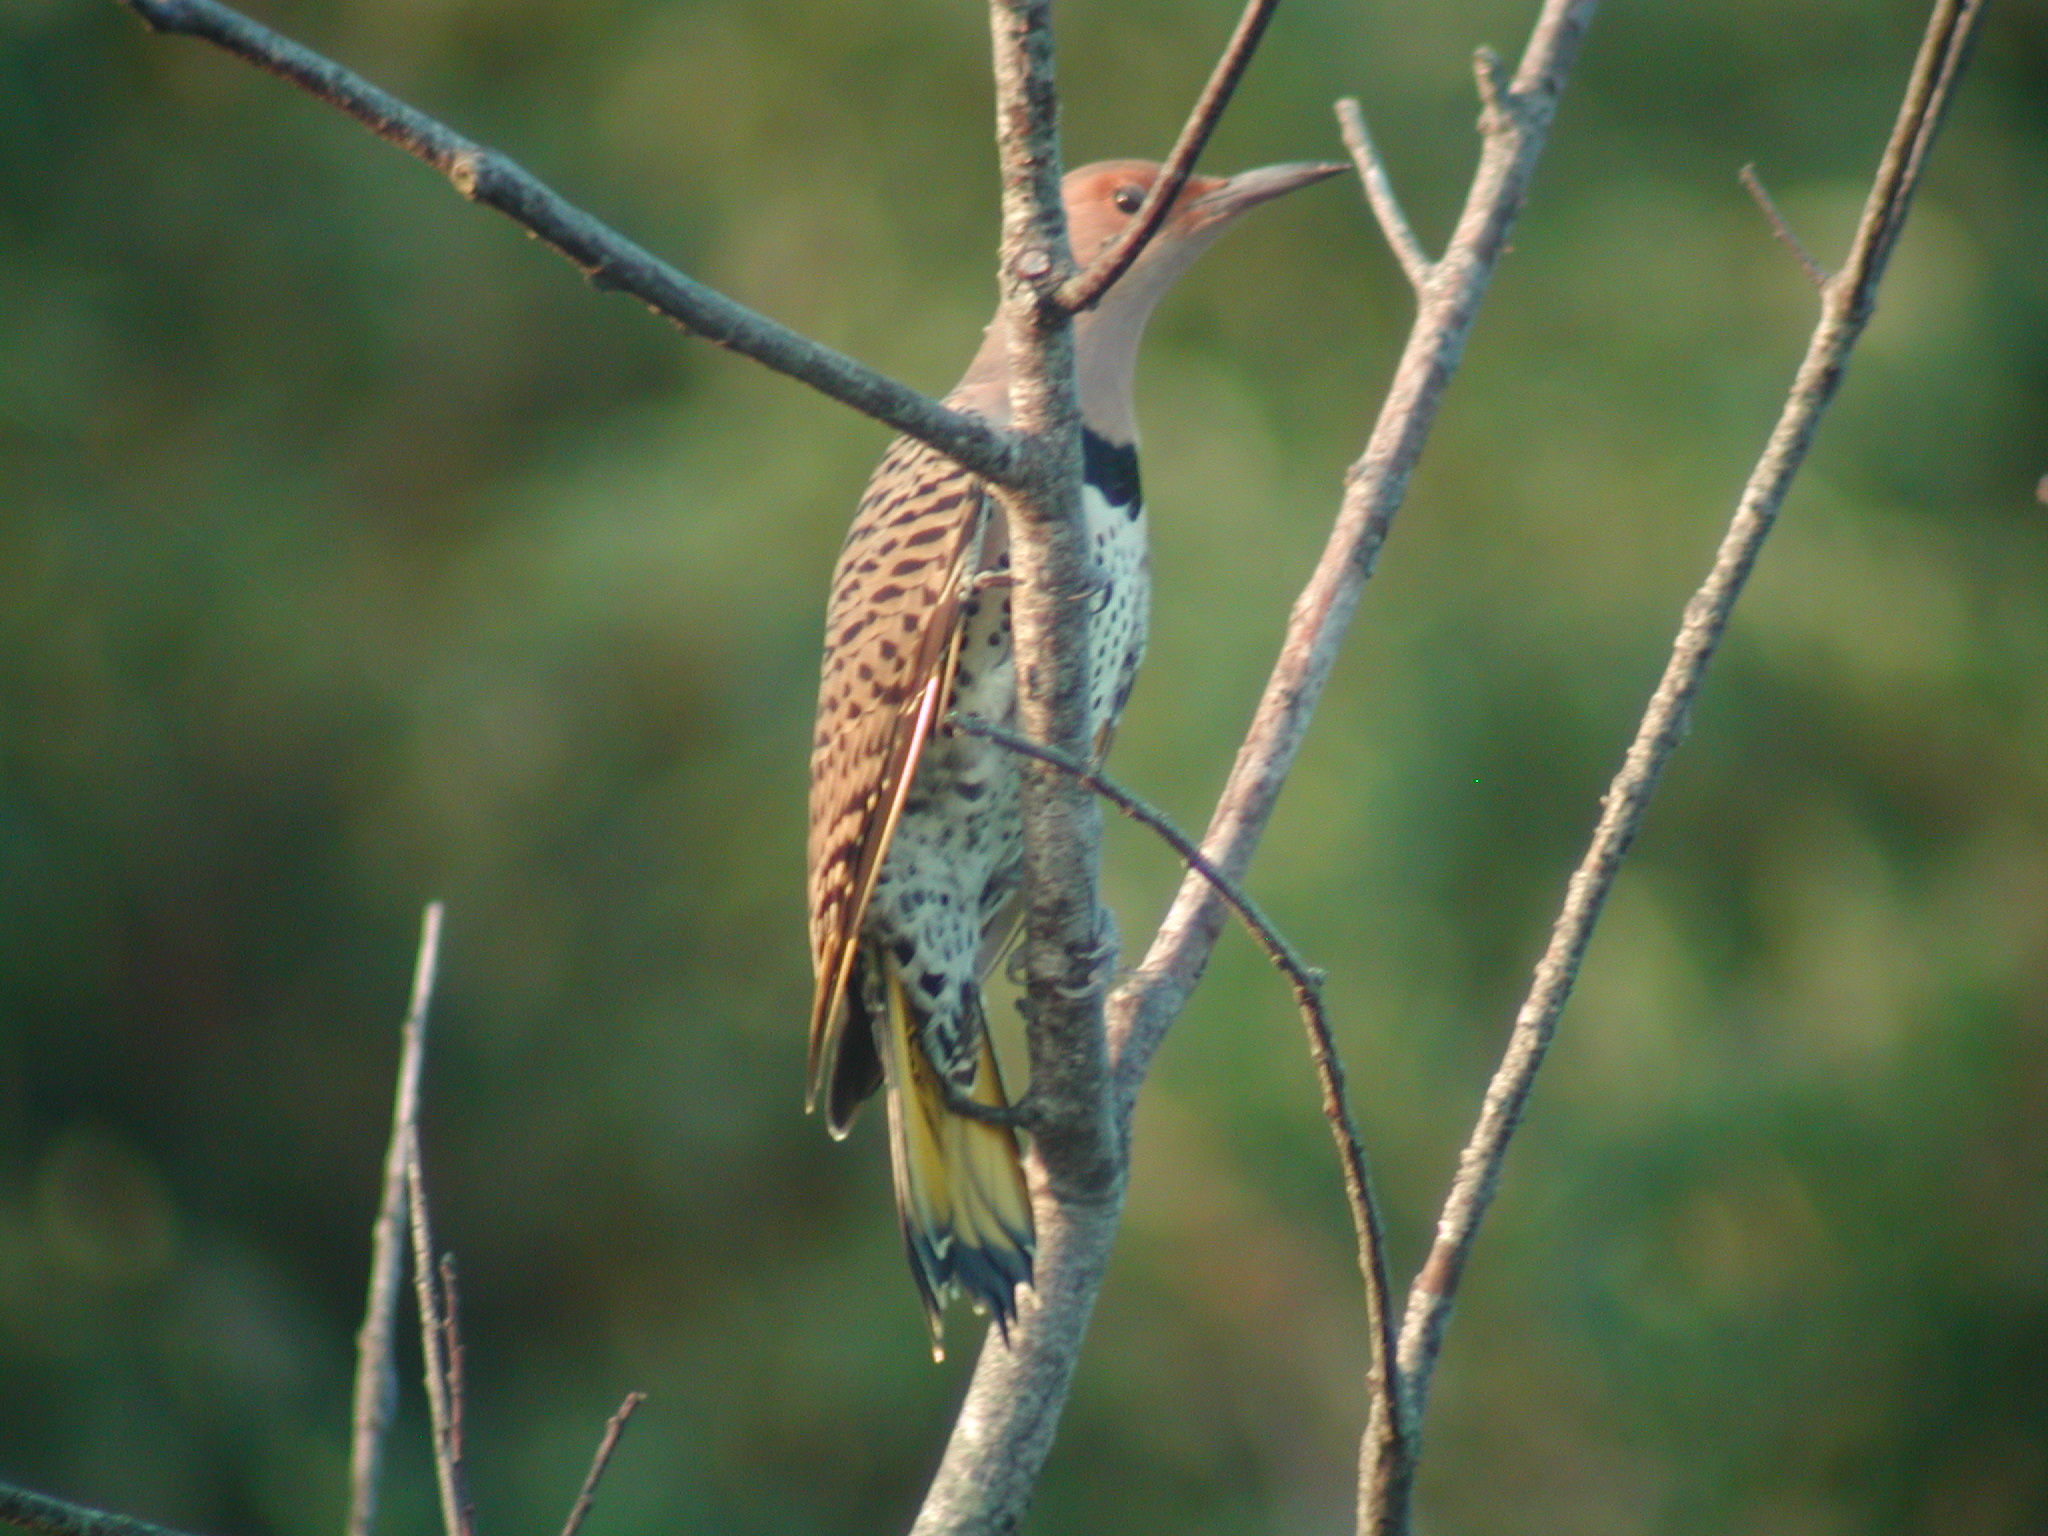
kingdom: Animalia
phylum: Chordata
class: Aves
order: Piciformes
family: Picidae
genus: Colaptes
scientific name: Colaptes auratus
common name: Northern flicker
